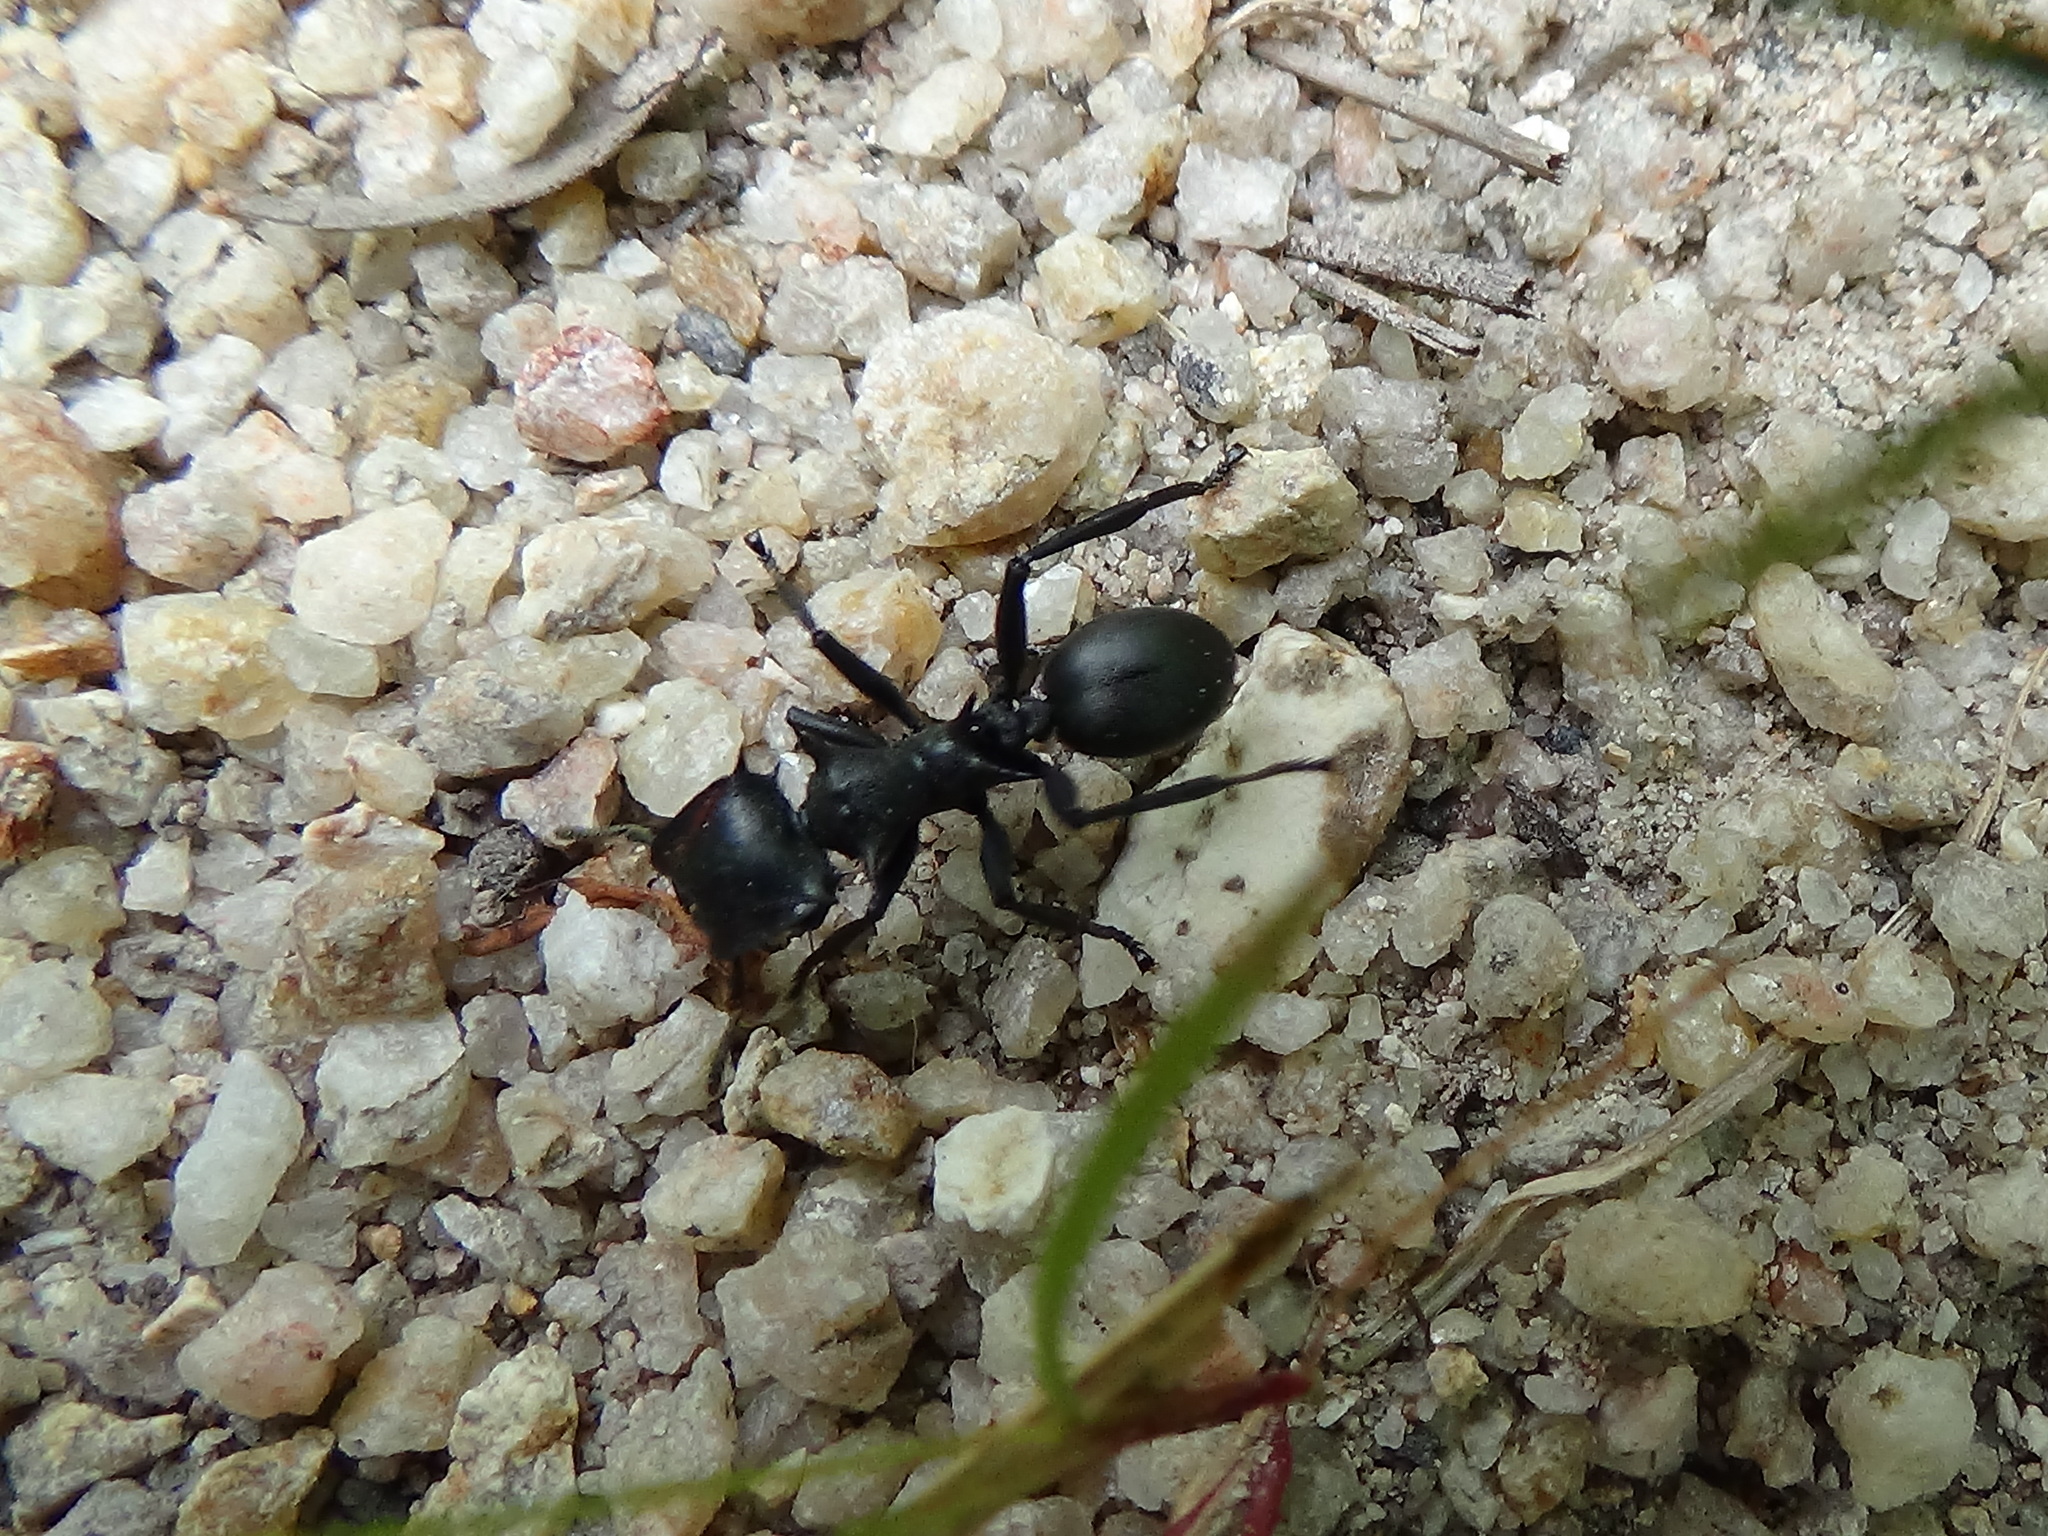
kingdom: Animalia
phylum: Arthropoda
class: Insecta
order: Hymenoptera
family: Formicidae
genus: Cephalotes
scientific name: Cephalotes
